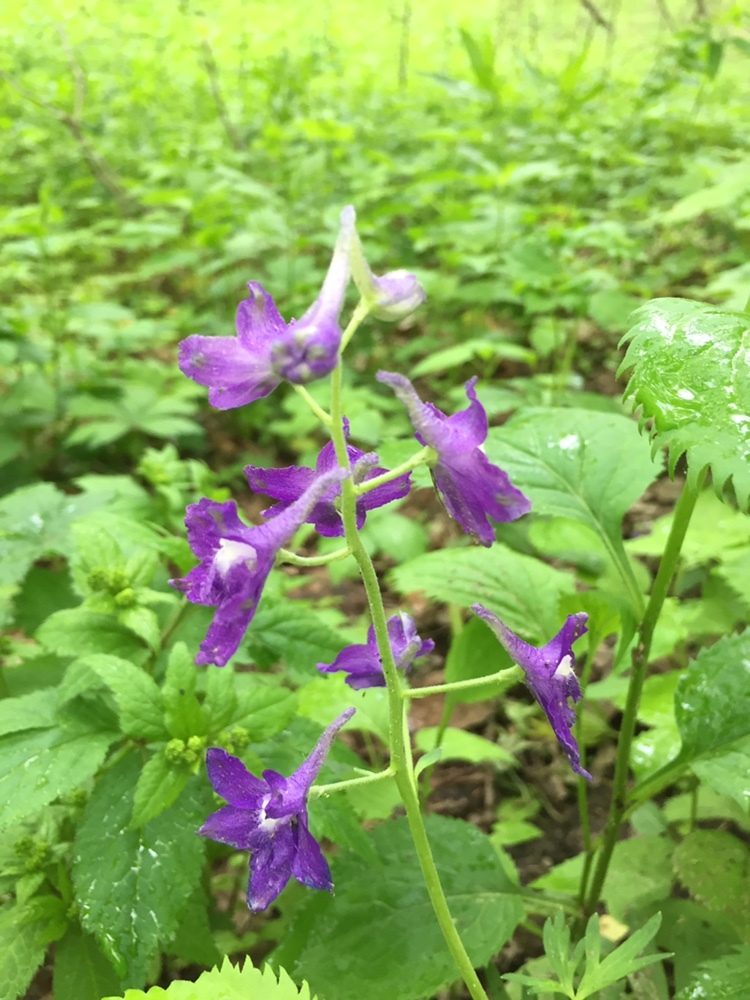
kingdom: Plantae
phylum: Tracheophyta
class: Magnoliopsida
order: Ranunculales
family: Ranunculaceae
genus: Delphinium
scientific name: Delphinium tricorne
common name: Dwarf larkspur
